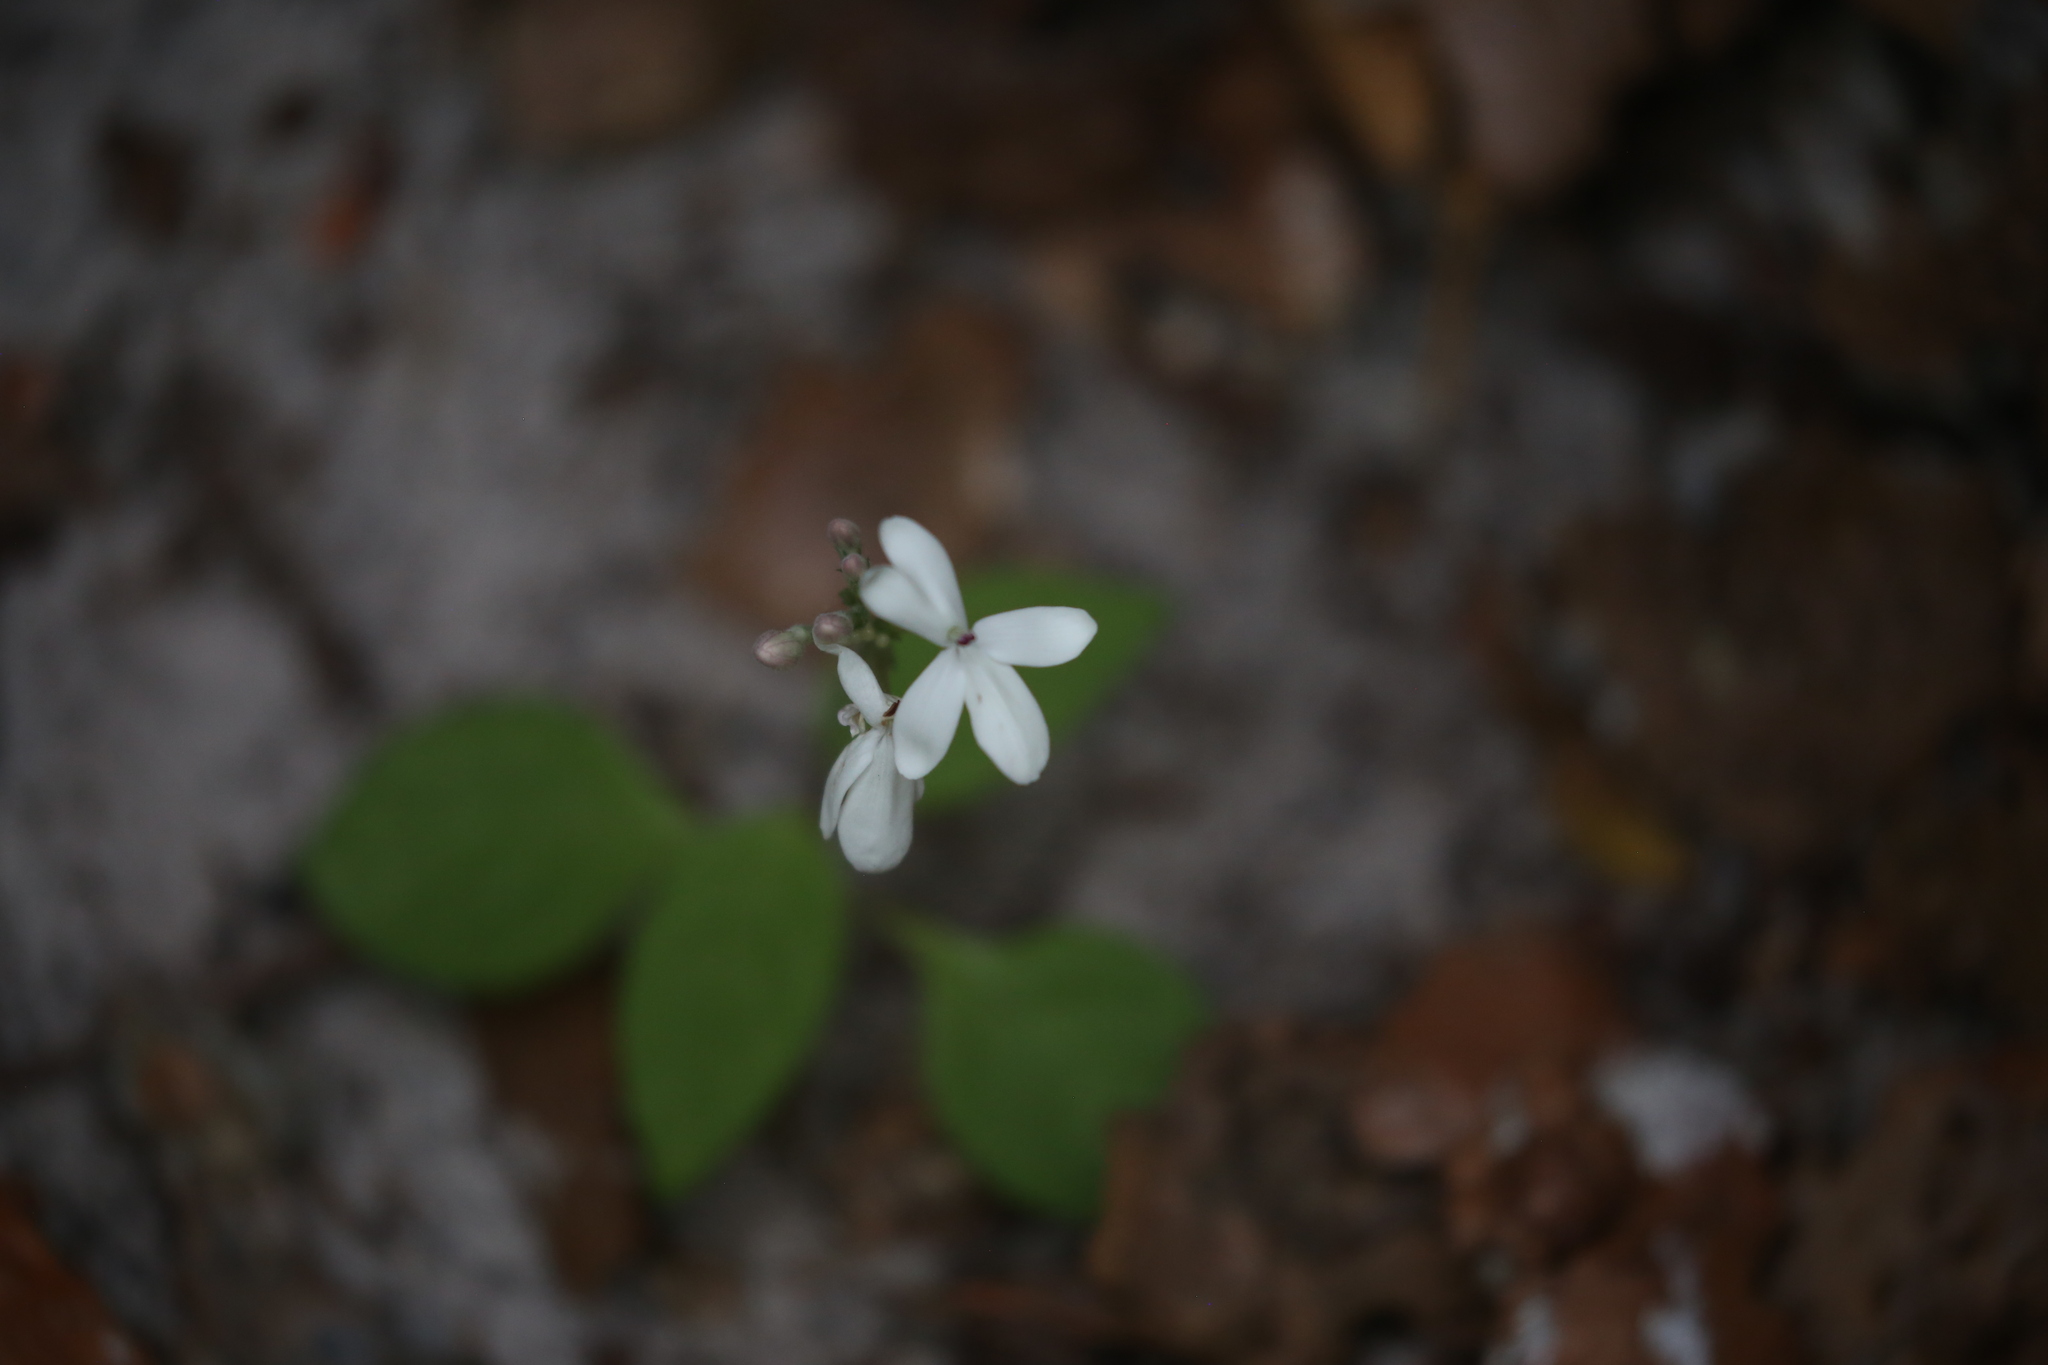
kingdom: Plantae
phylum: Tracheophyta
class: Magnoliopsida
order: Lamiales
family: Acanthaceae
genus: Pseuderanthemum
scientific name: Pseuderanthemum variabile
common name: Night and afternoon
